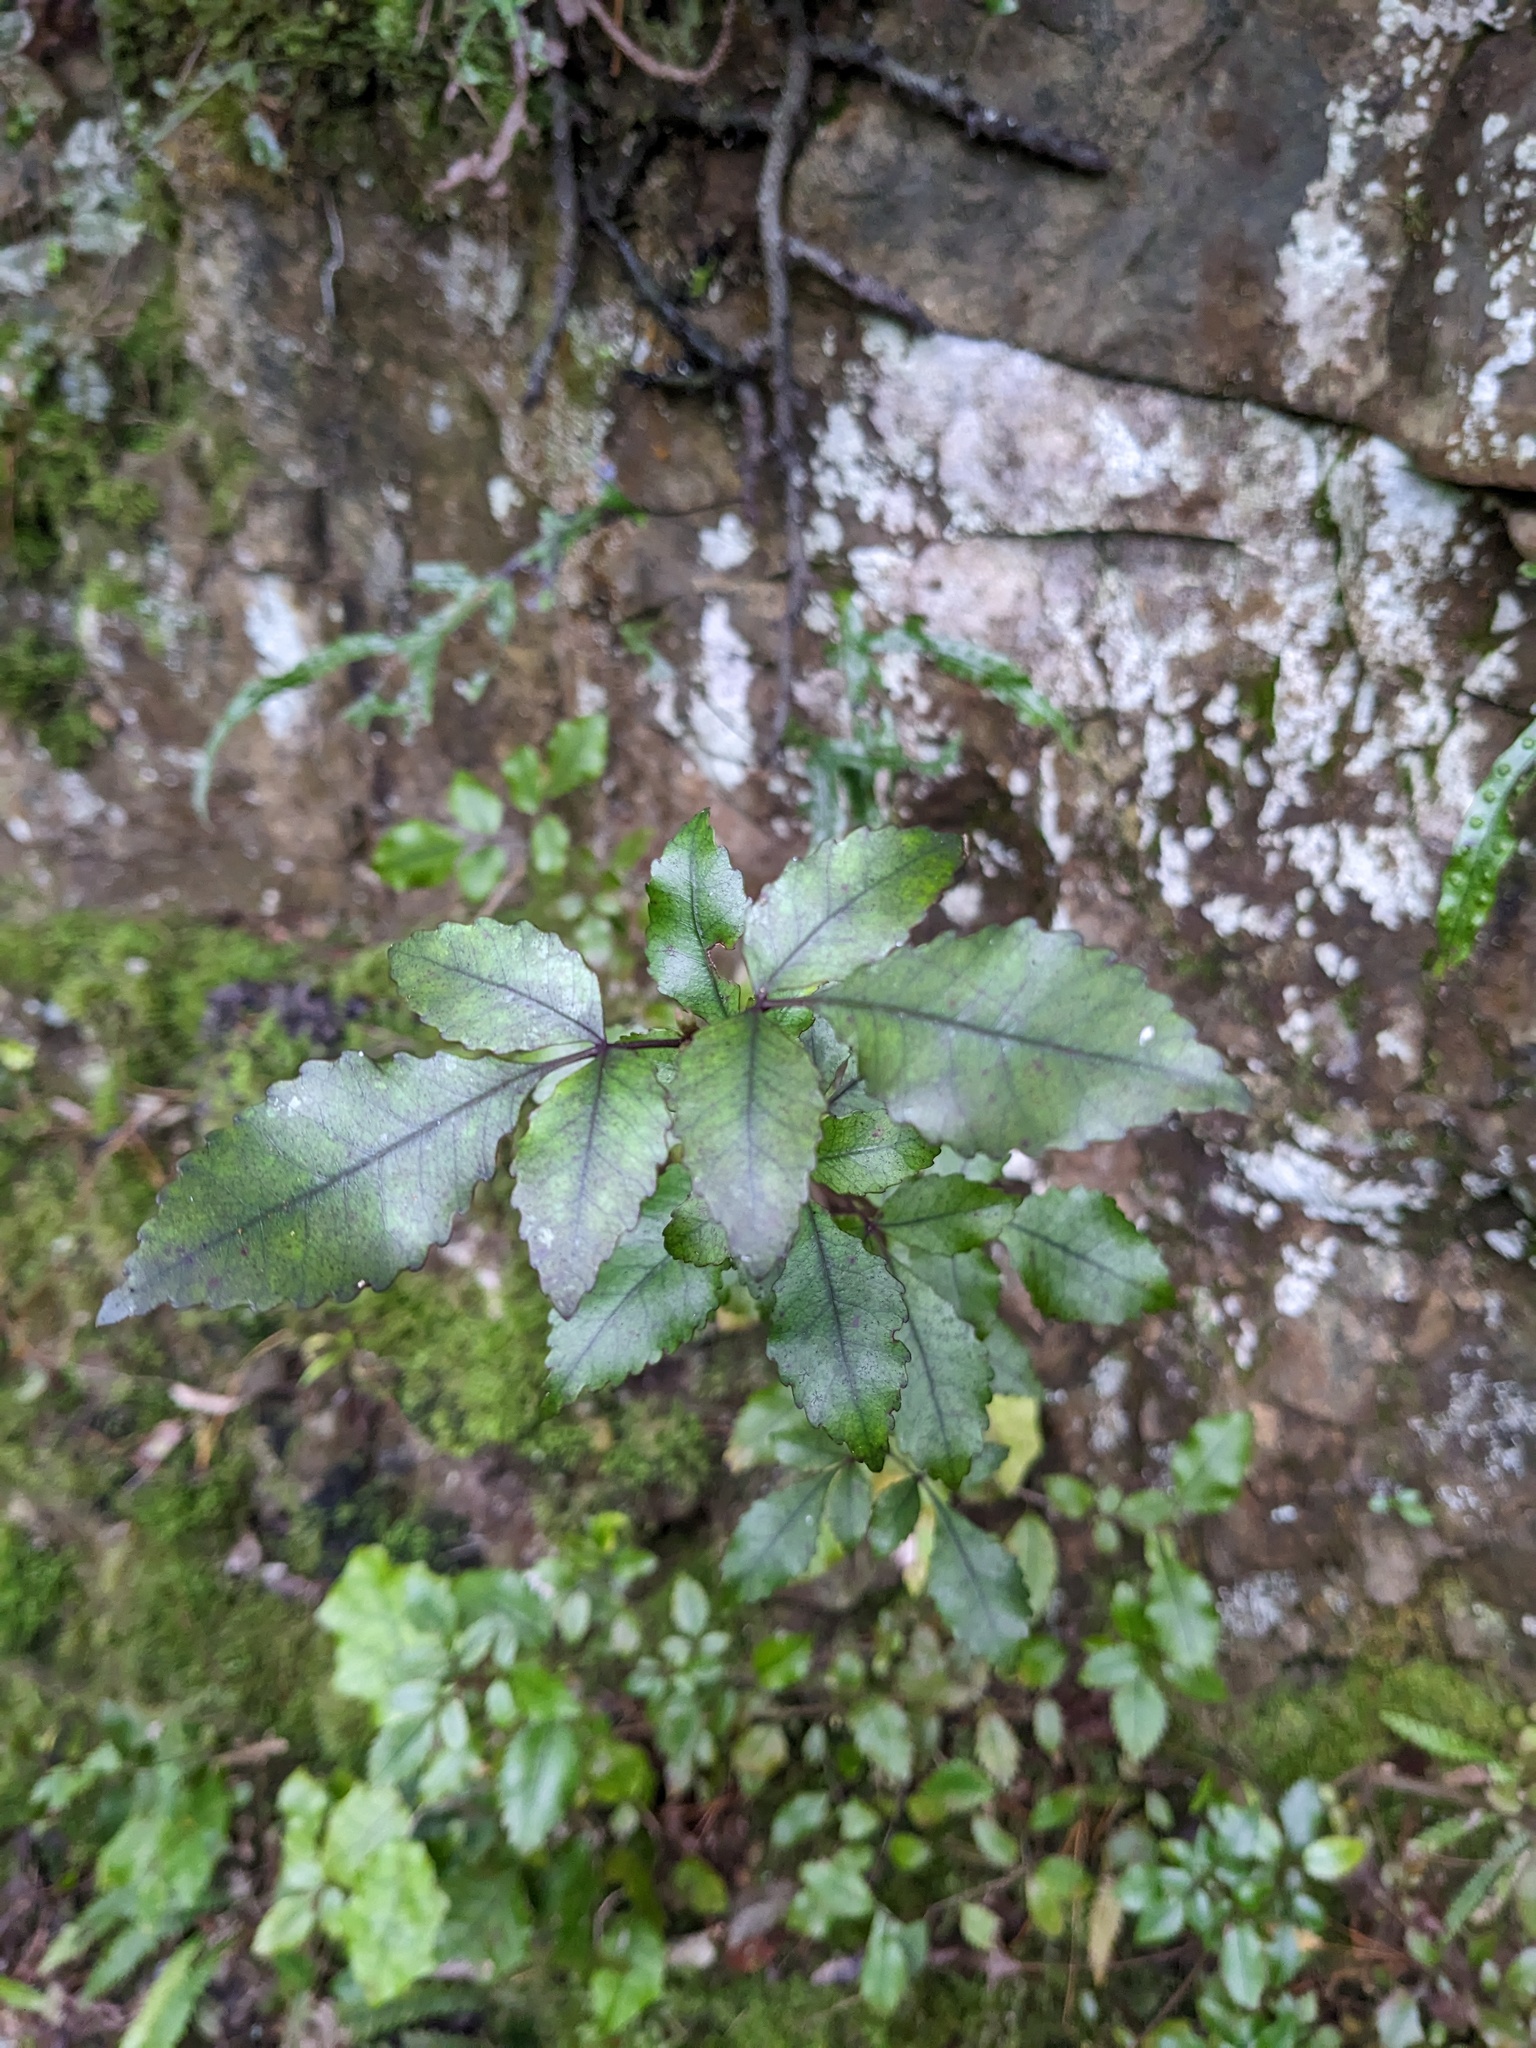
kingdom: Plantae
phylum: Tracheophyta
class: Magnoliopsida
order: Oxalidales
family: Cunoniaceae
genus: Pterophylla
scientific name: Pterophylla racemosa
